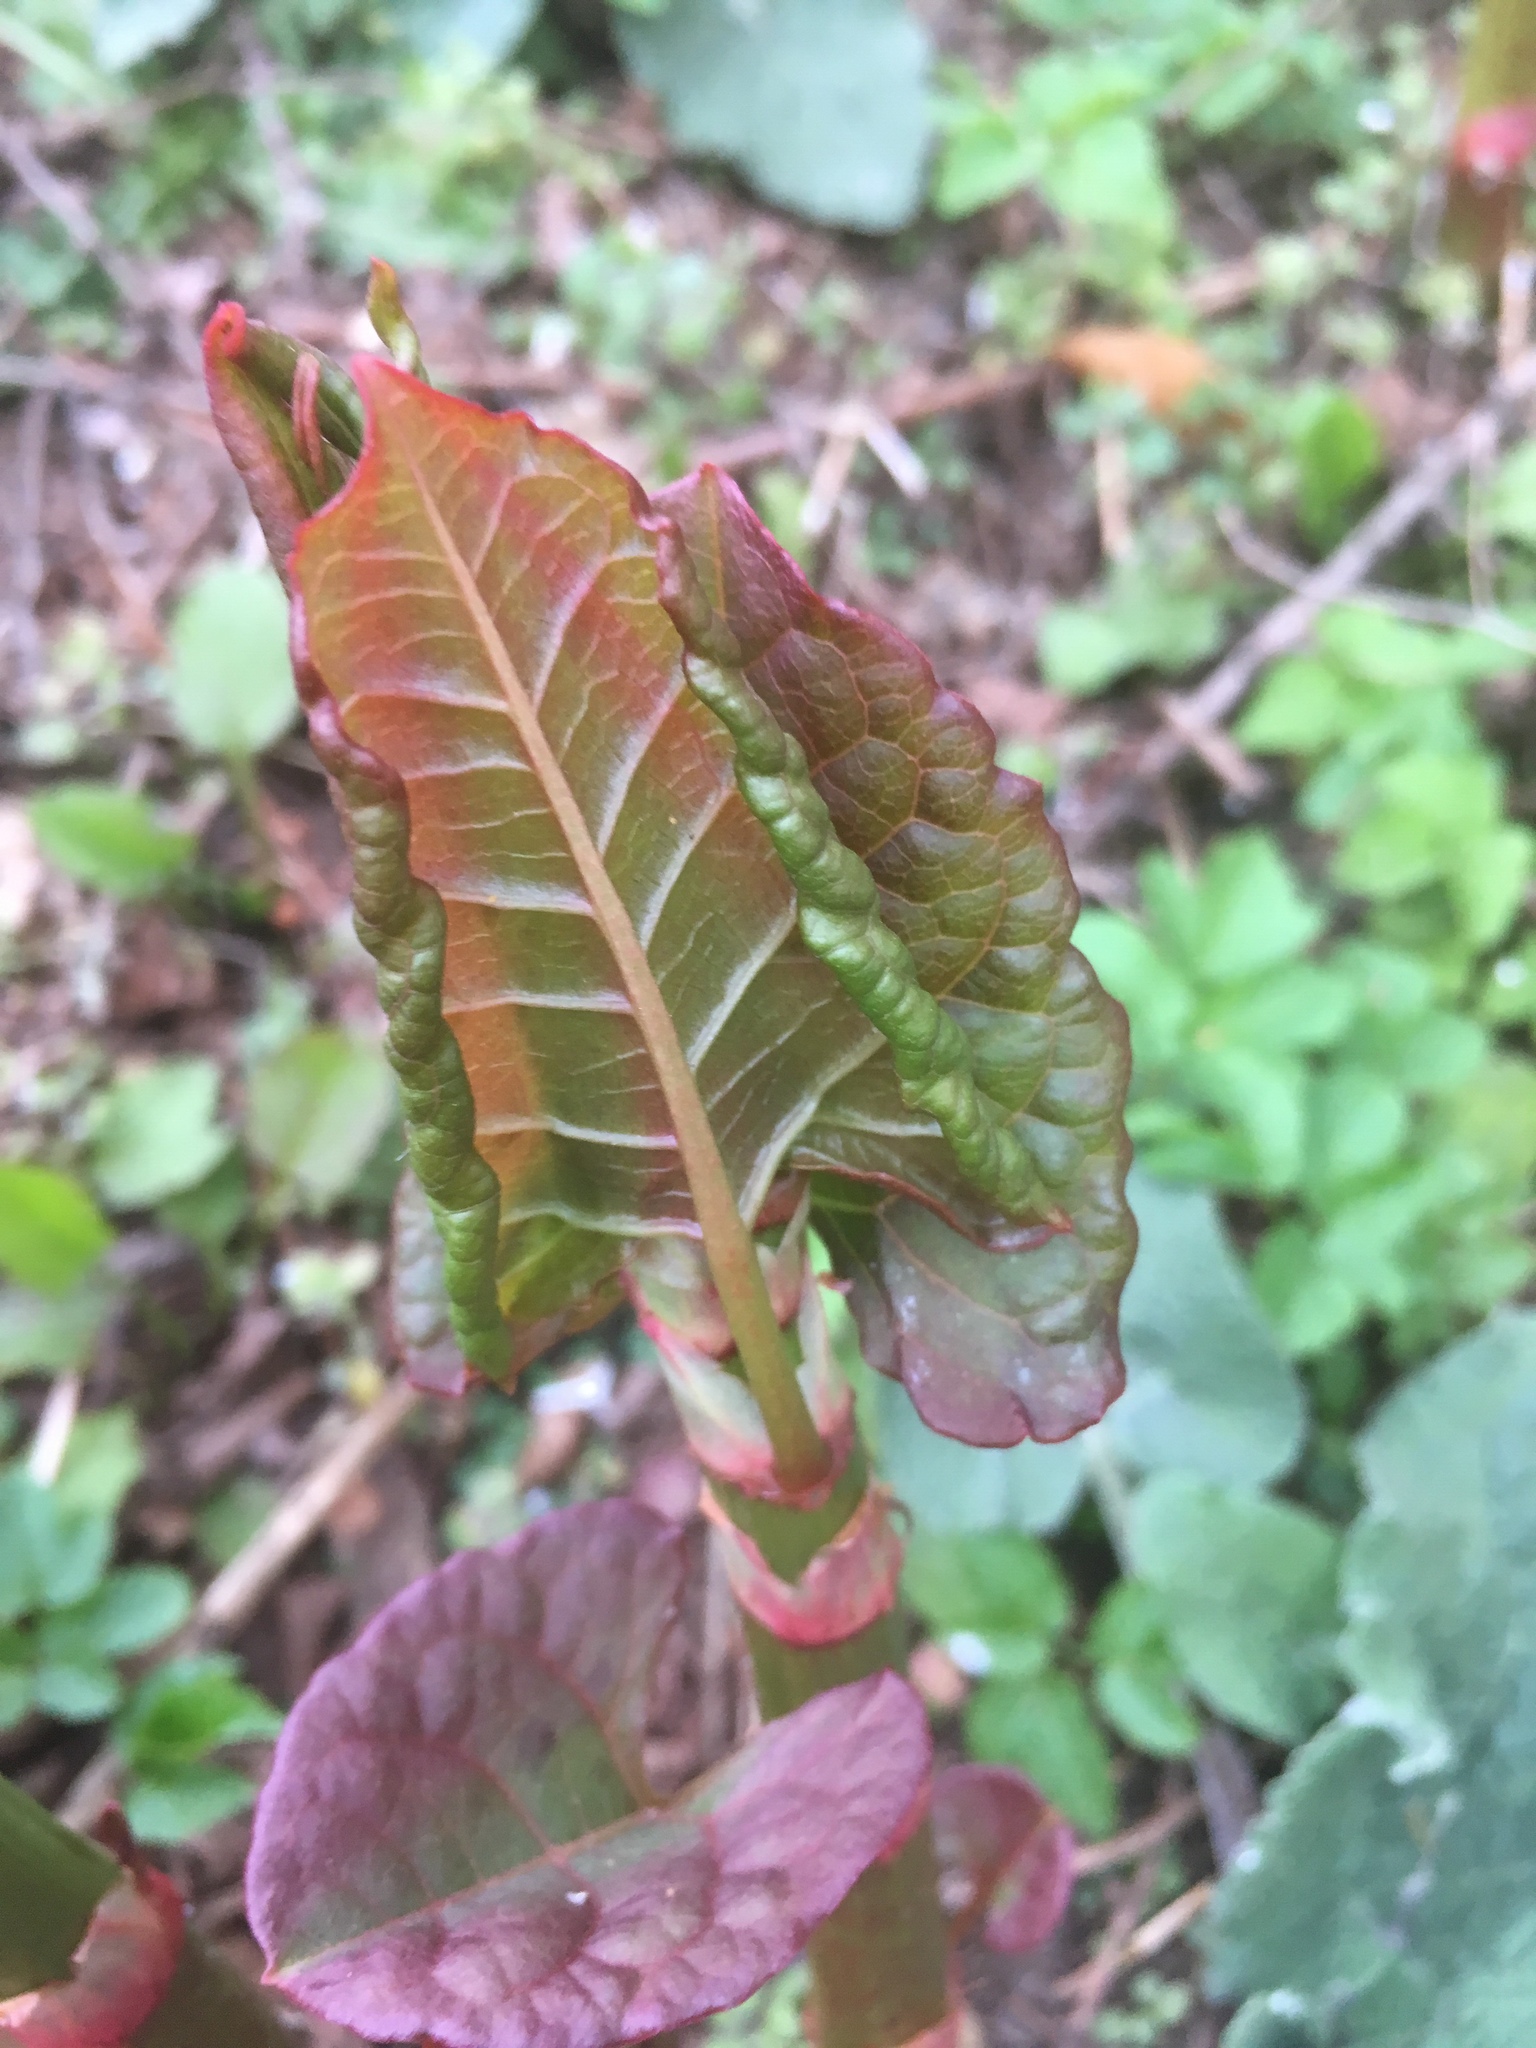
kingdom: Plantae
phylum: Tracheophyta
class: Magnoliopsida
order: Caryophyllales
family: Polygonaceae
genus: Reynoutria
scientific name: Reynoutria japonica
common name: Japanese knotweed
